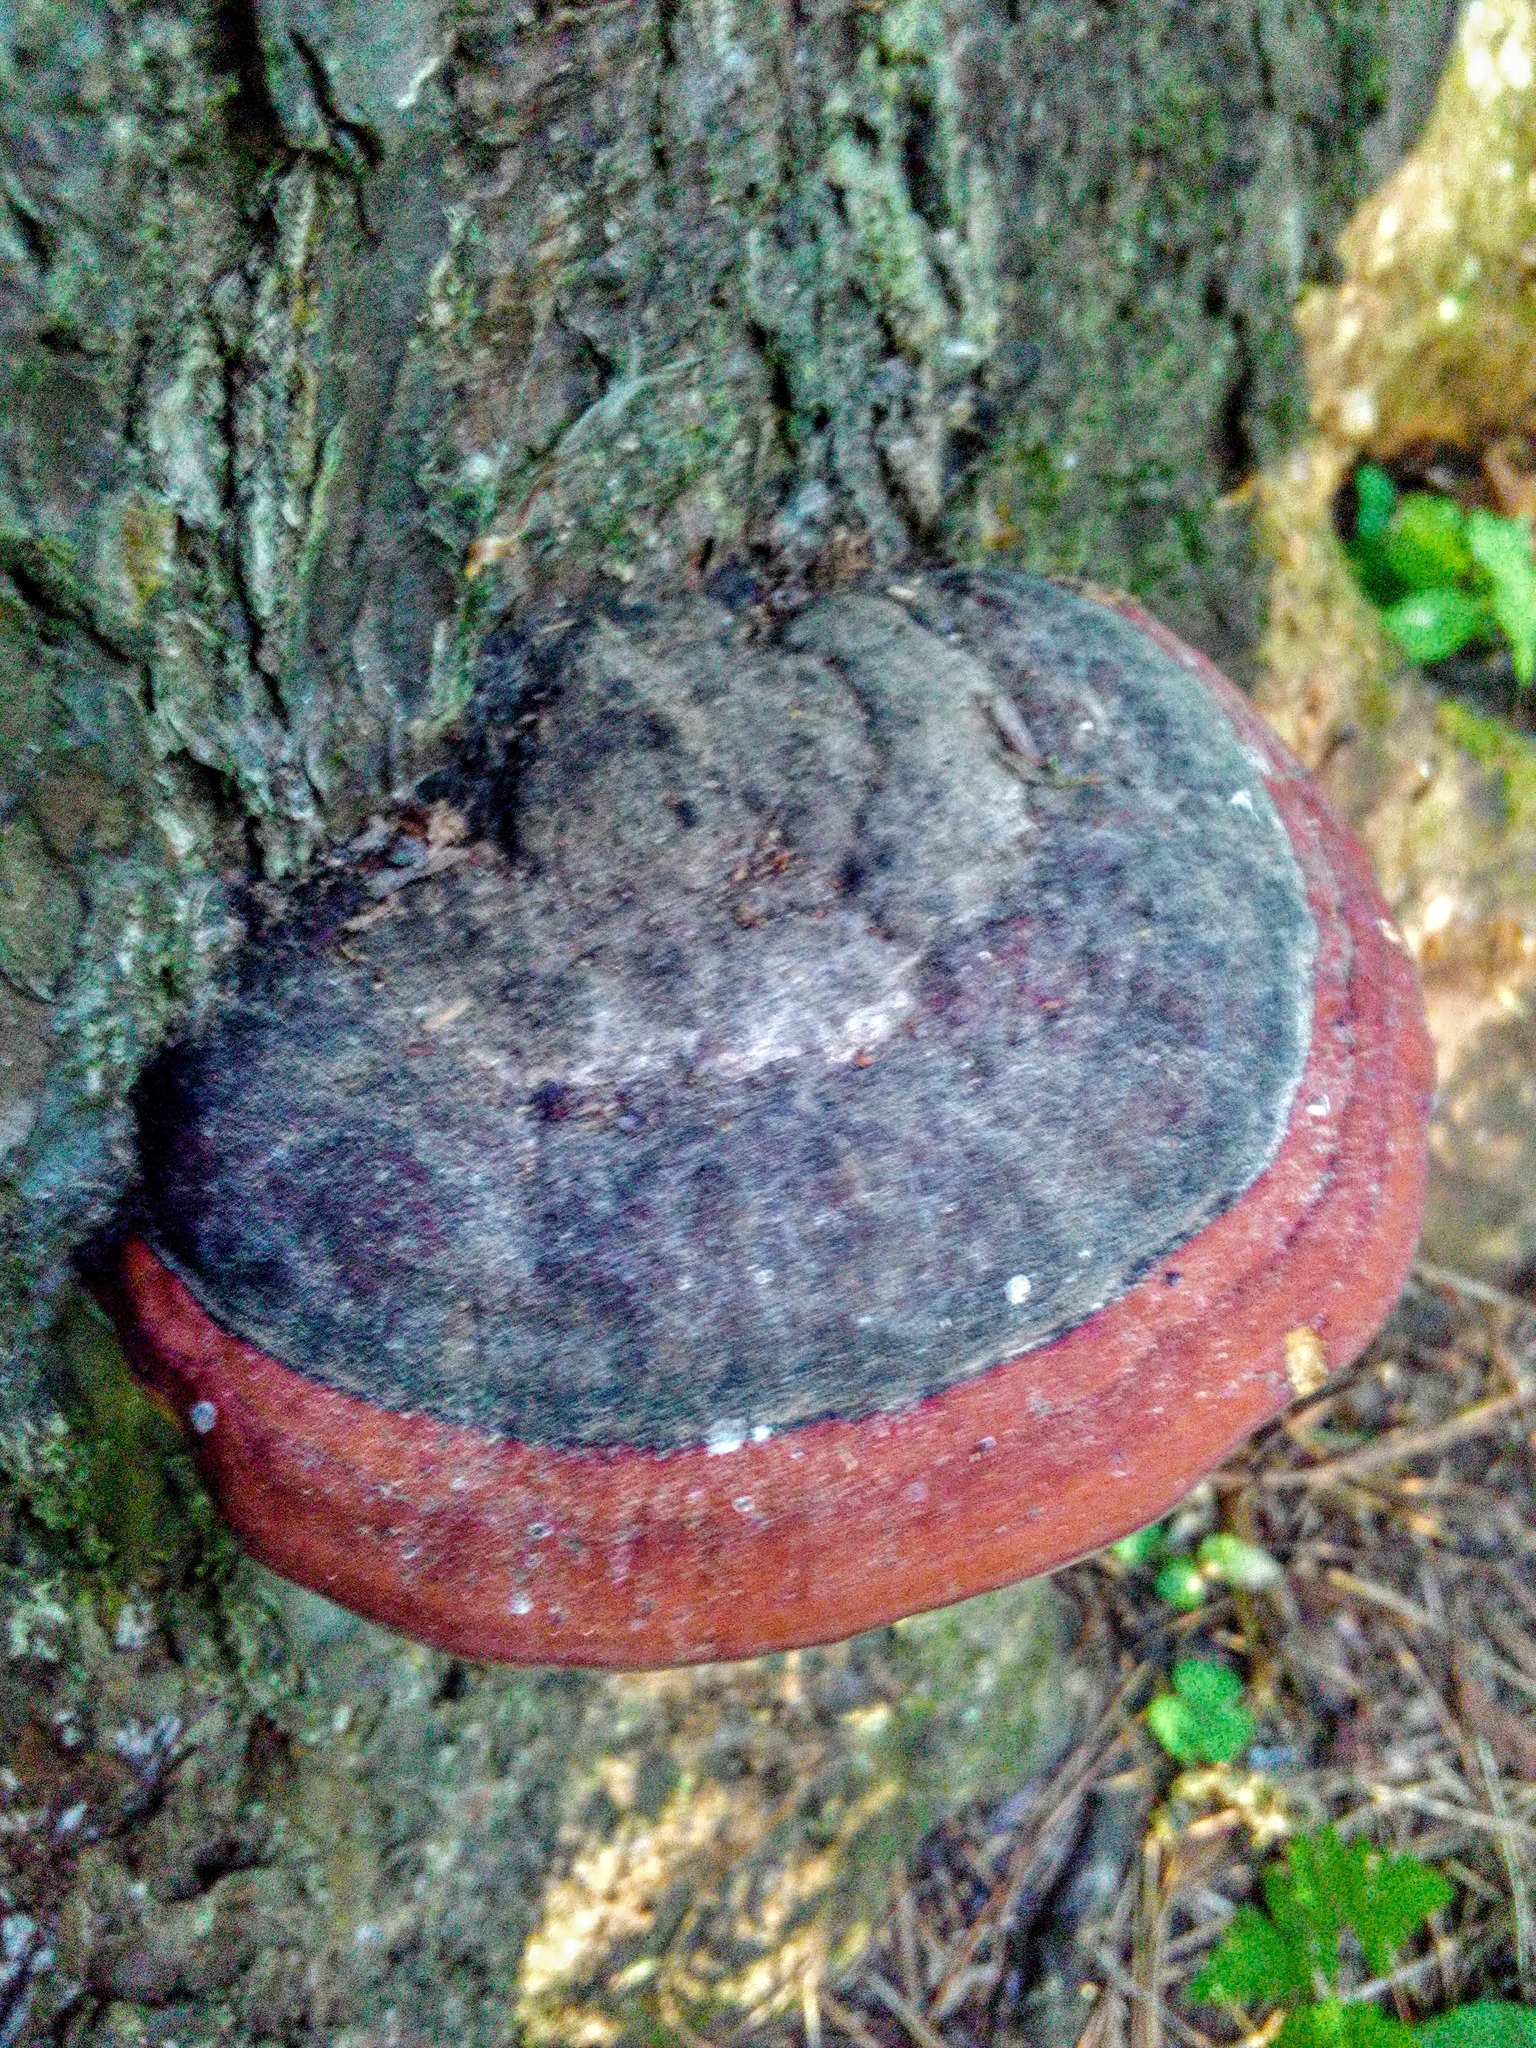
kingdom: Fungi
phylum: Basidiomycota
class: Agaricomycetes
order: Polyporales
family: Fomitopsidaceae
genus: Fomitopsis
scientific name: Fomitopsis pinicola
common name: Red-belted bracket
